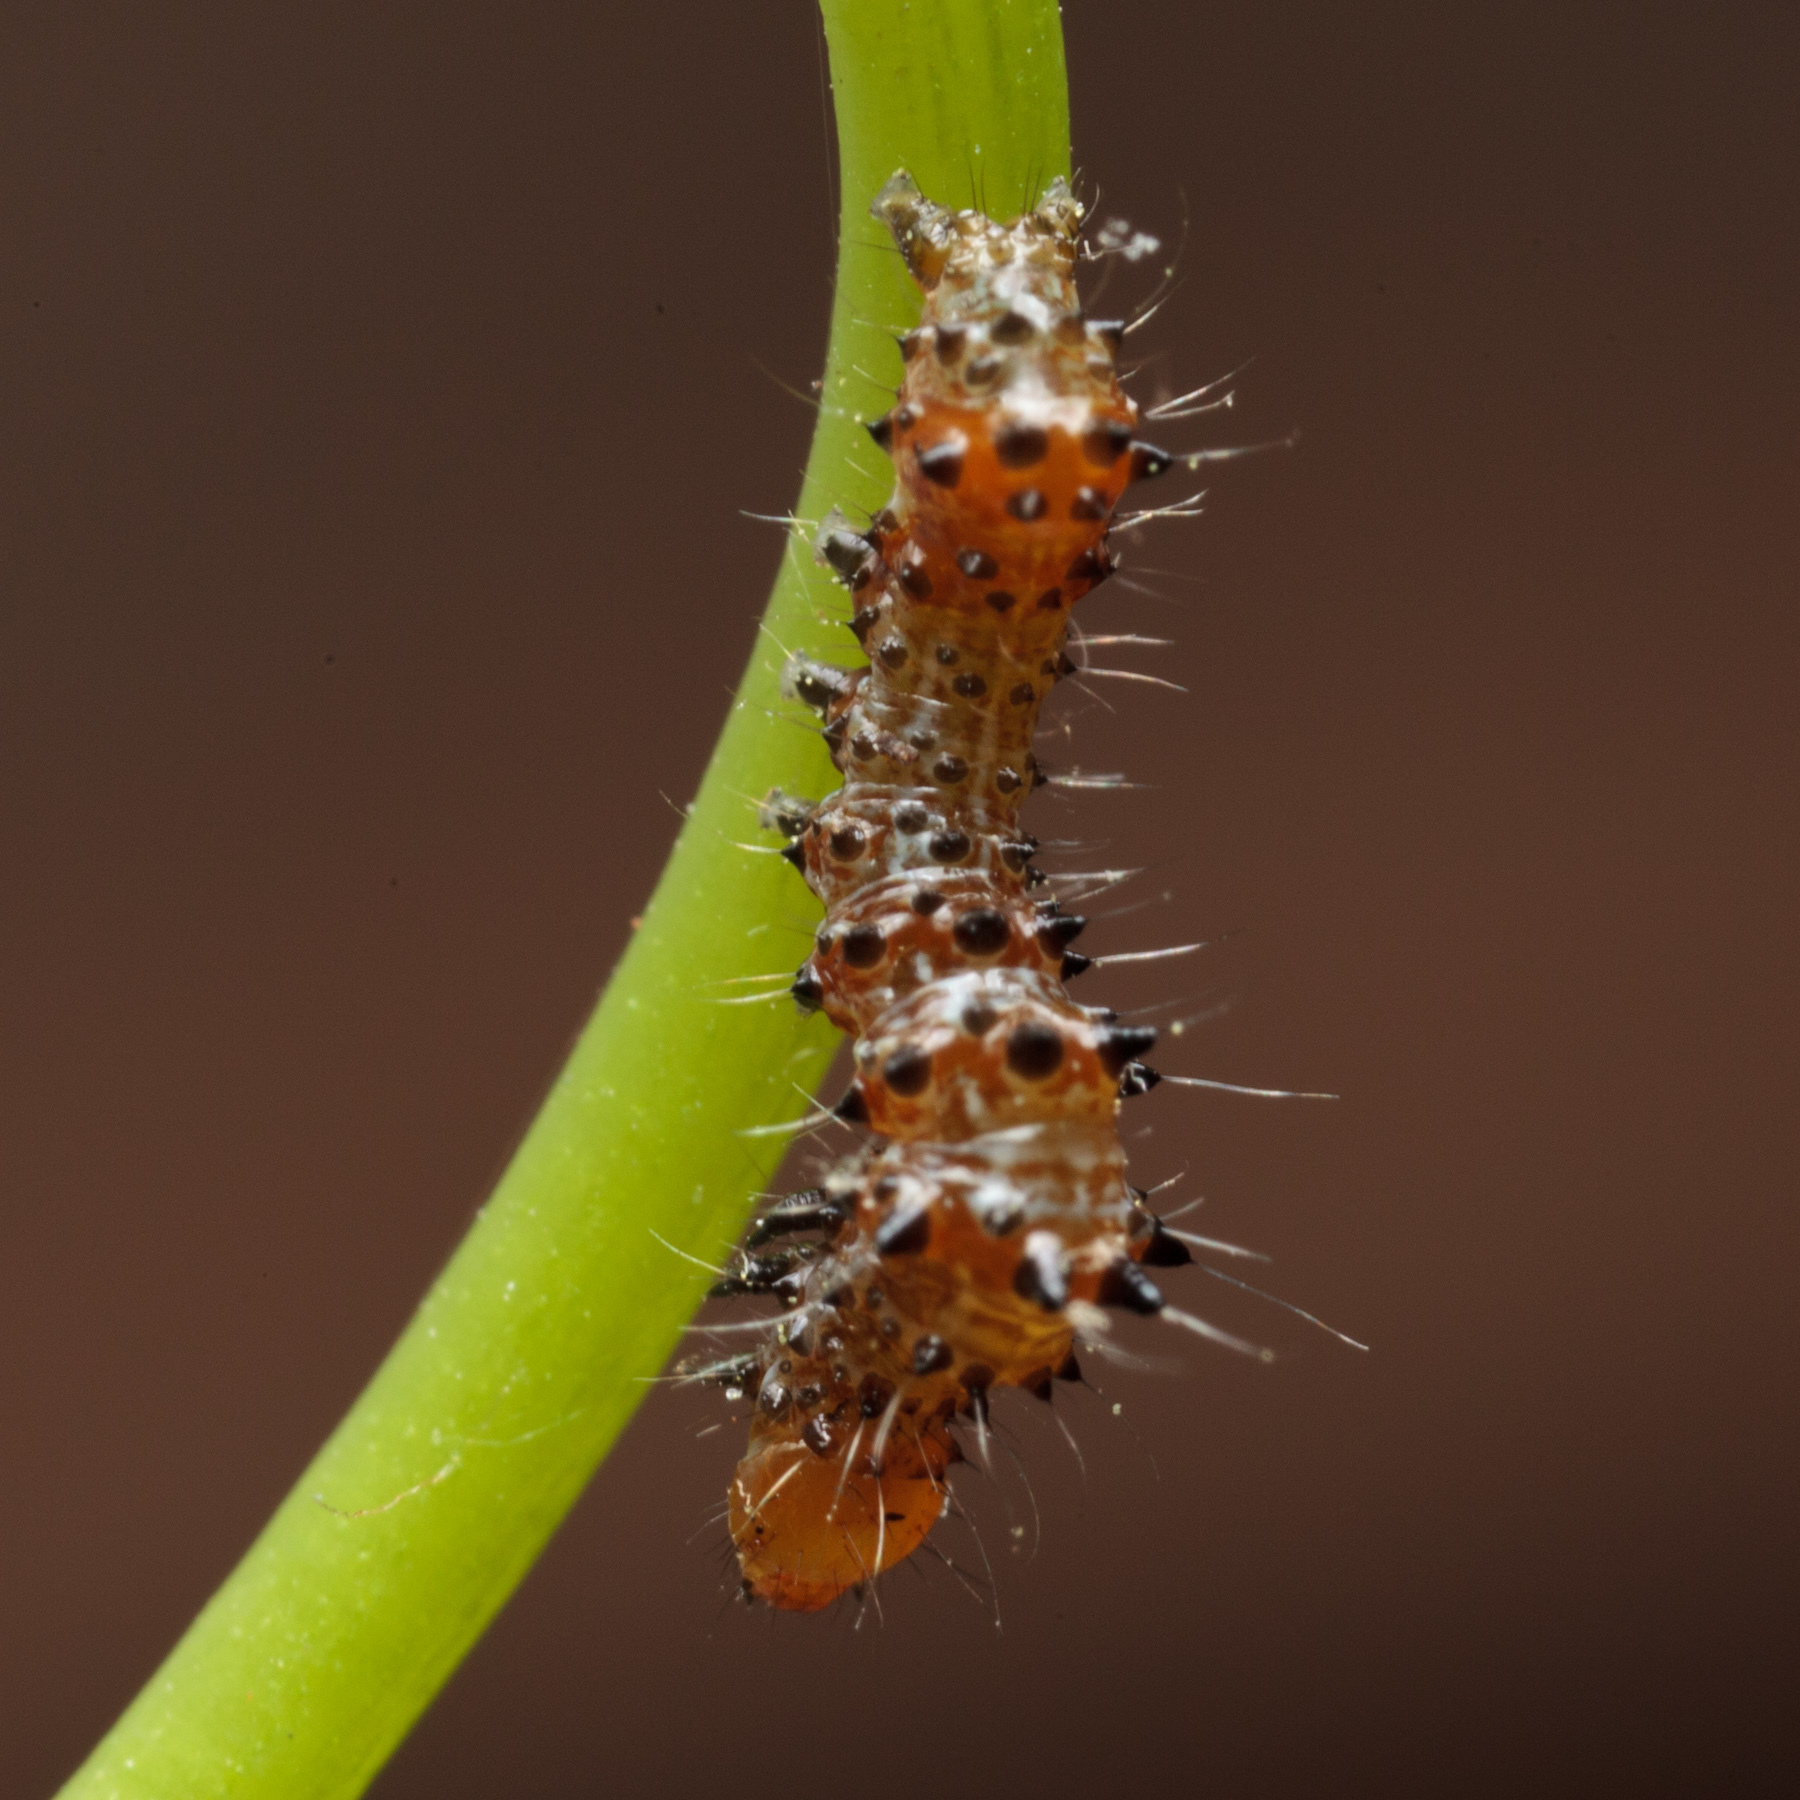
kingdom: Animalia
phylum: Arthropoda
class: Insecta
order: Lepidoptera
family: Noctuidae
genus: Alypia
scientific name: Alypia octomaculata
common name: Eight-spotted forester
